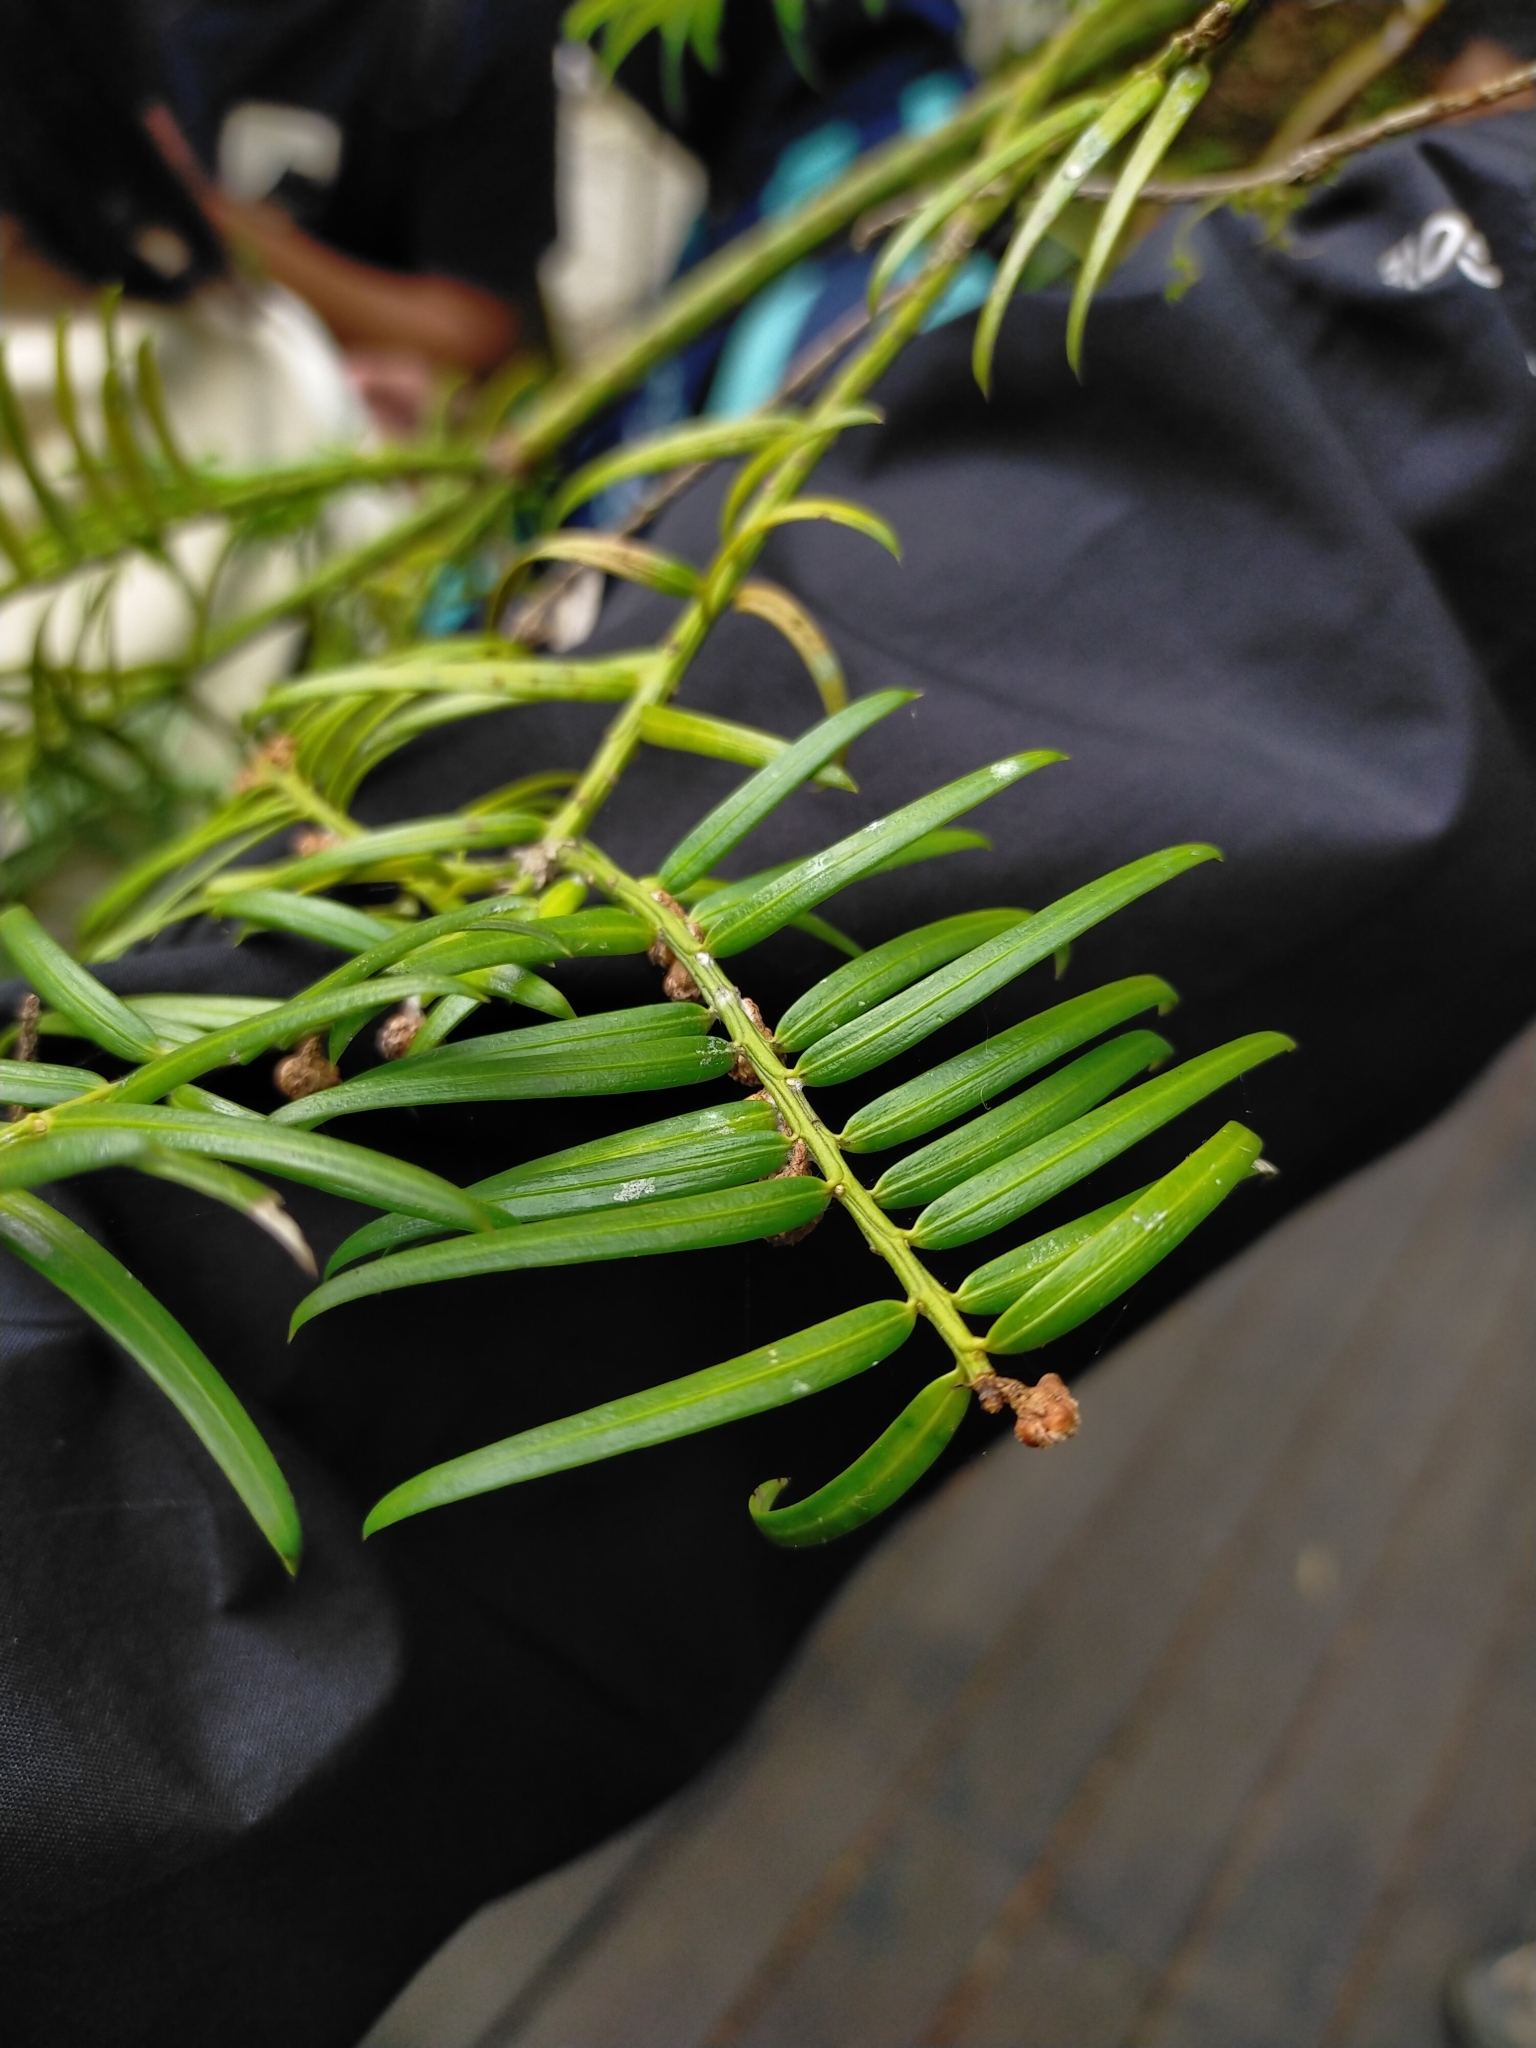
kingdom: Plantae
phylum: Tracheophyta
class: Pinopsida
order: Pinales
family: Cephalotaxaceae
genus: Cephalotaxus
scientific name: Cephalotaxus harringtonia
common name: Japanese plum-yew
